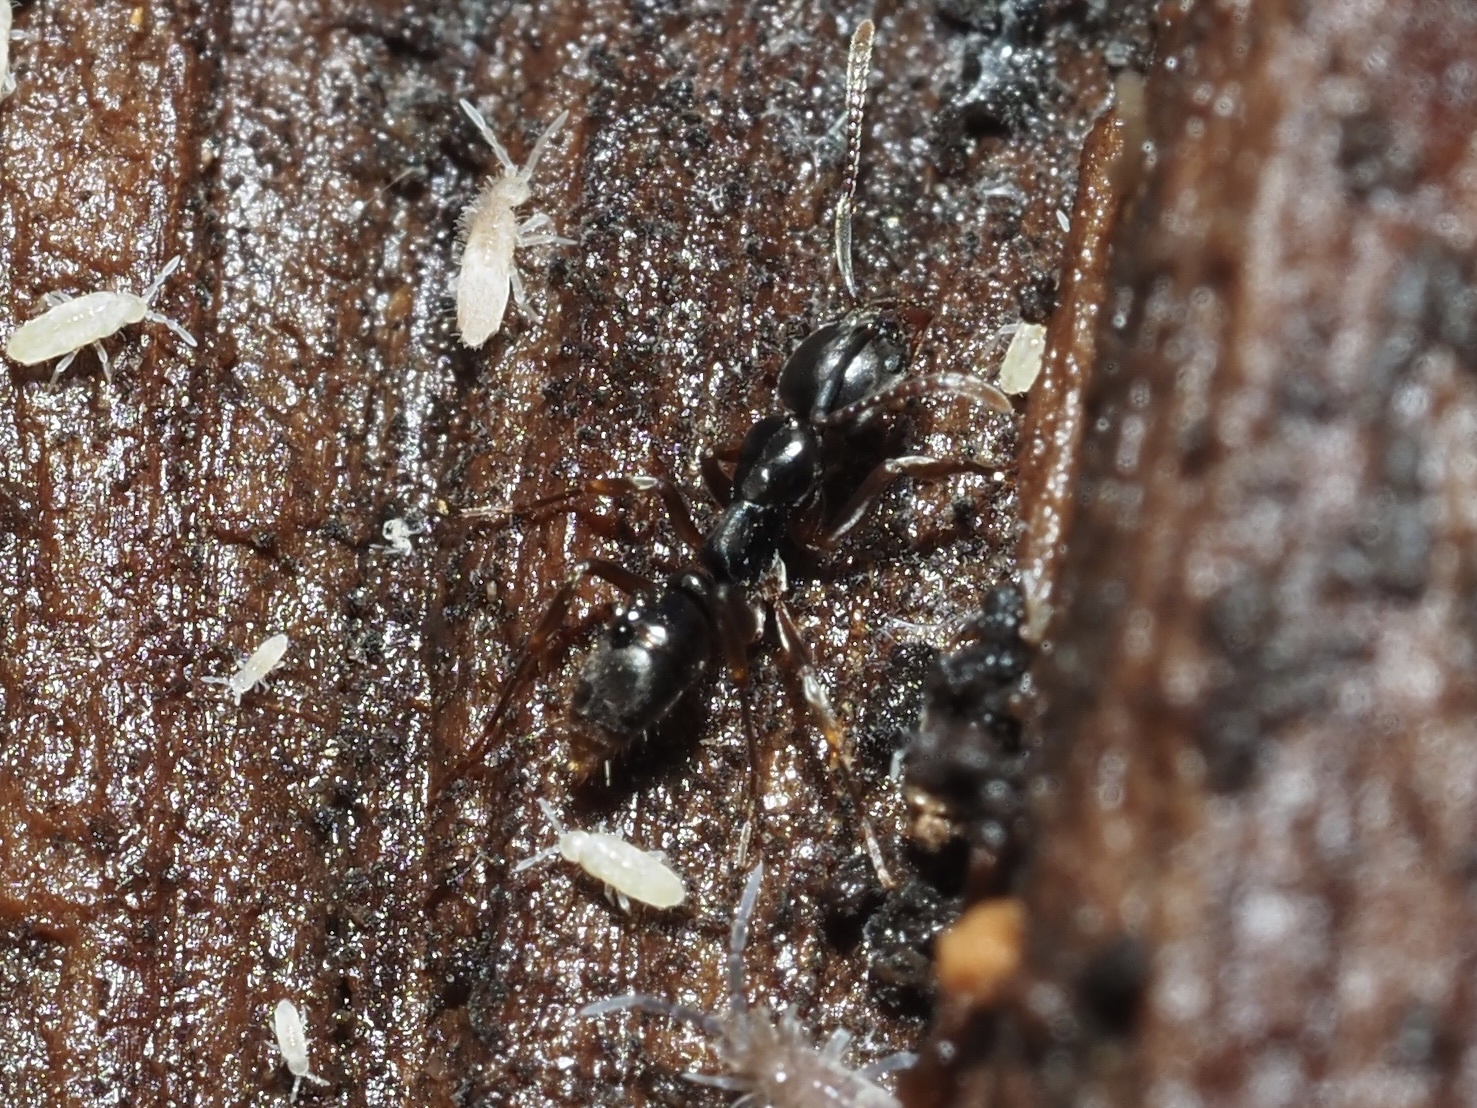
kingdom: Animalia
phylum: Arthropoda
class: Insecta
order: Hymenoptera
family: Formicidae
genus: Pachycondyla
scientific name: Pachycondyla chinensis
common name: Asian needle ant
